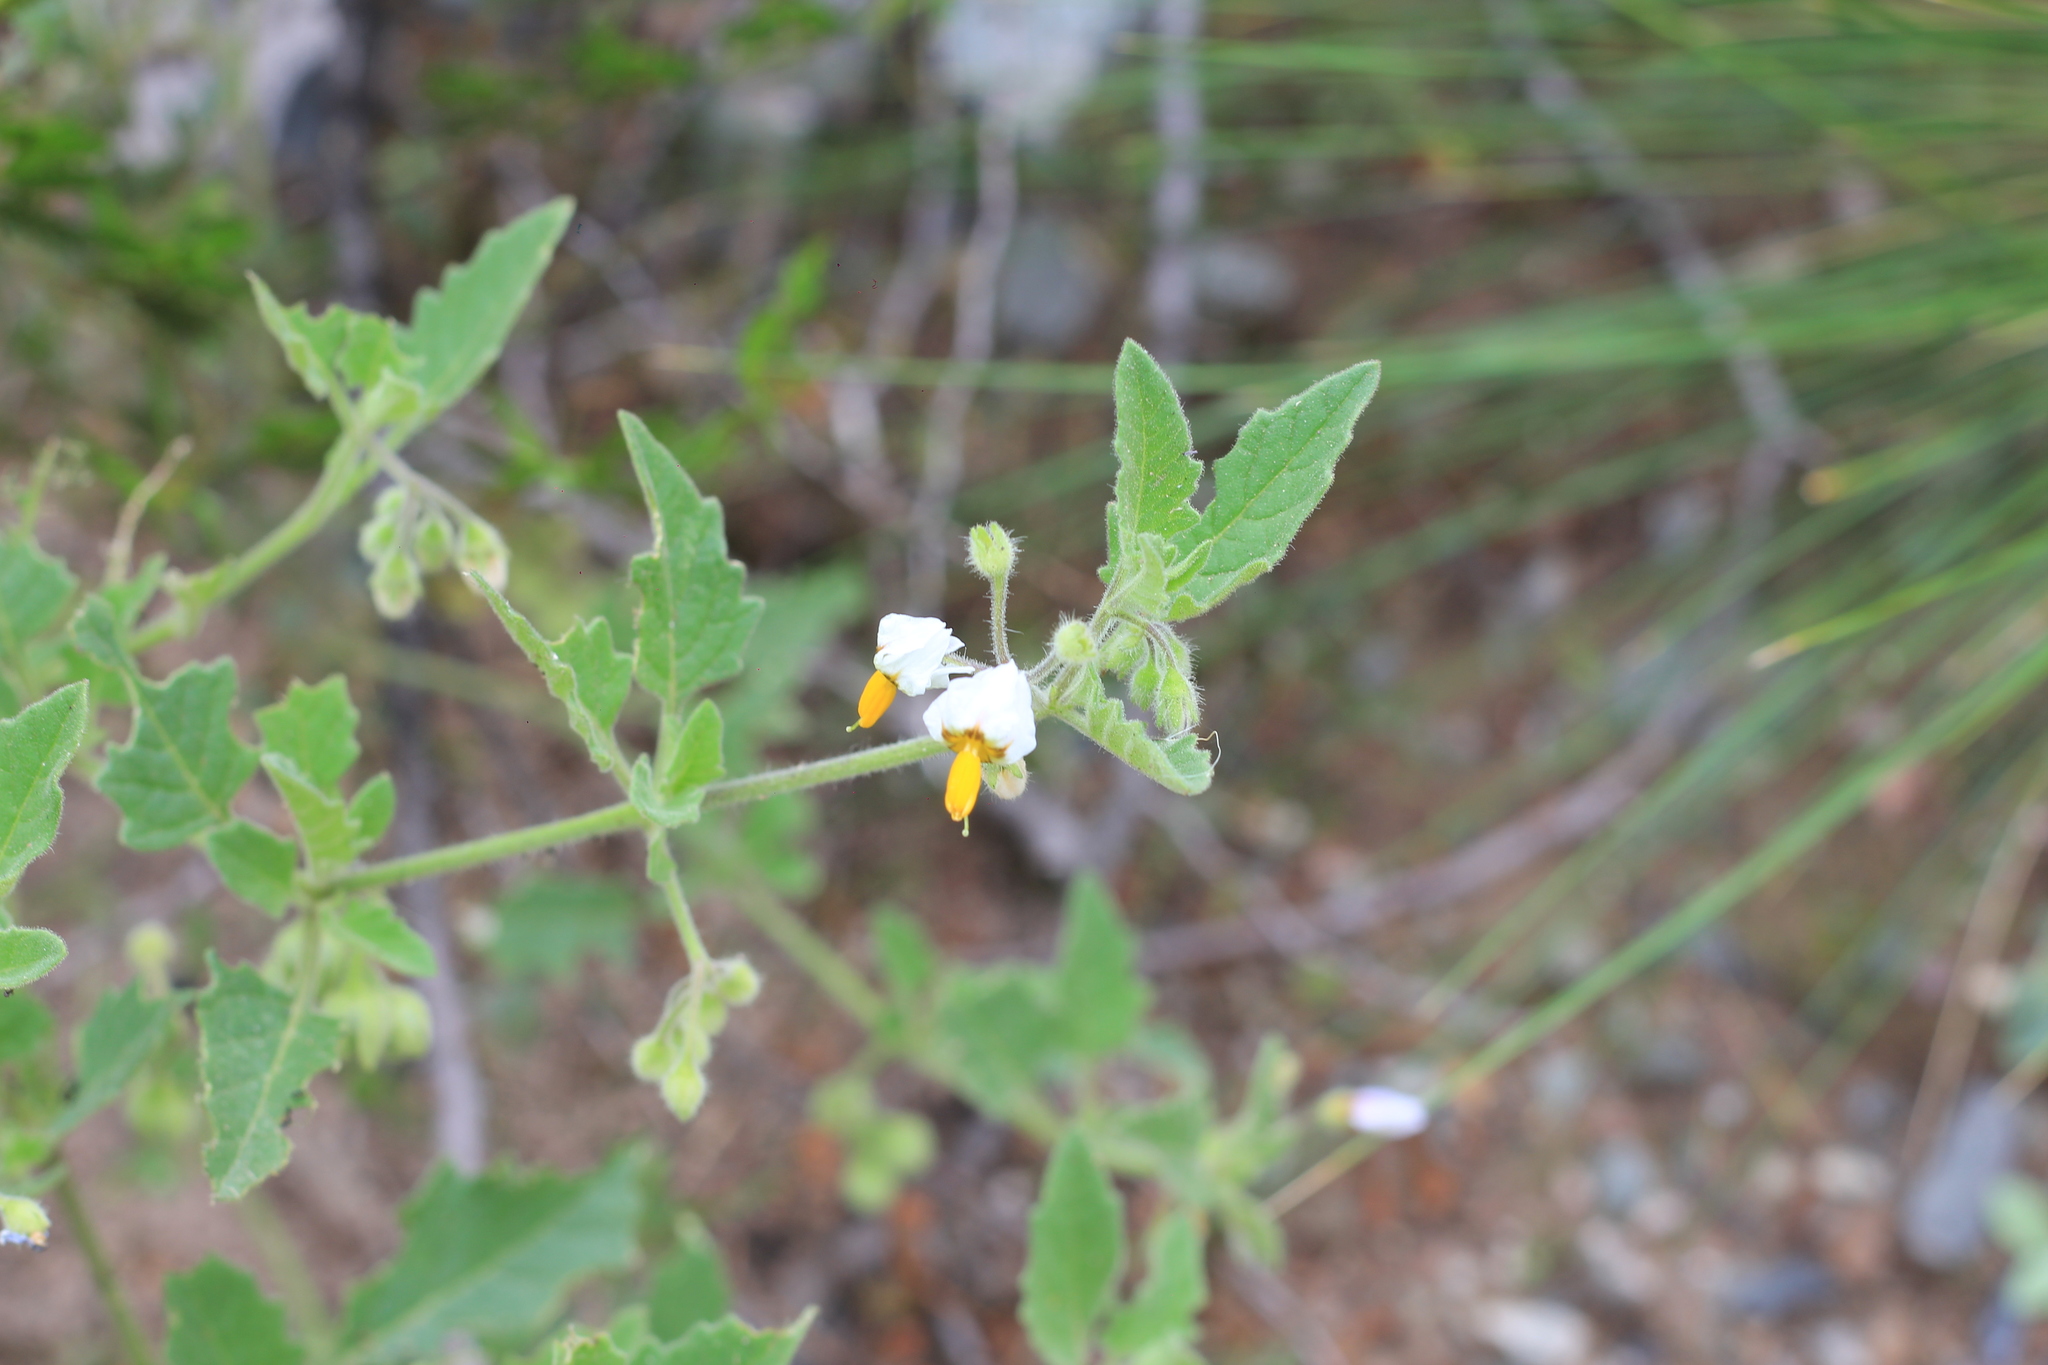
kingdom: Plantae
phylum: Tracheophyta
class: Magnoliopsida
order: Solanales
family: Solanaceae
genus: Solanum
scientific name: Solanum tweedianum
